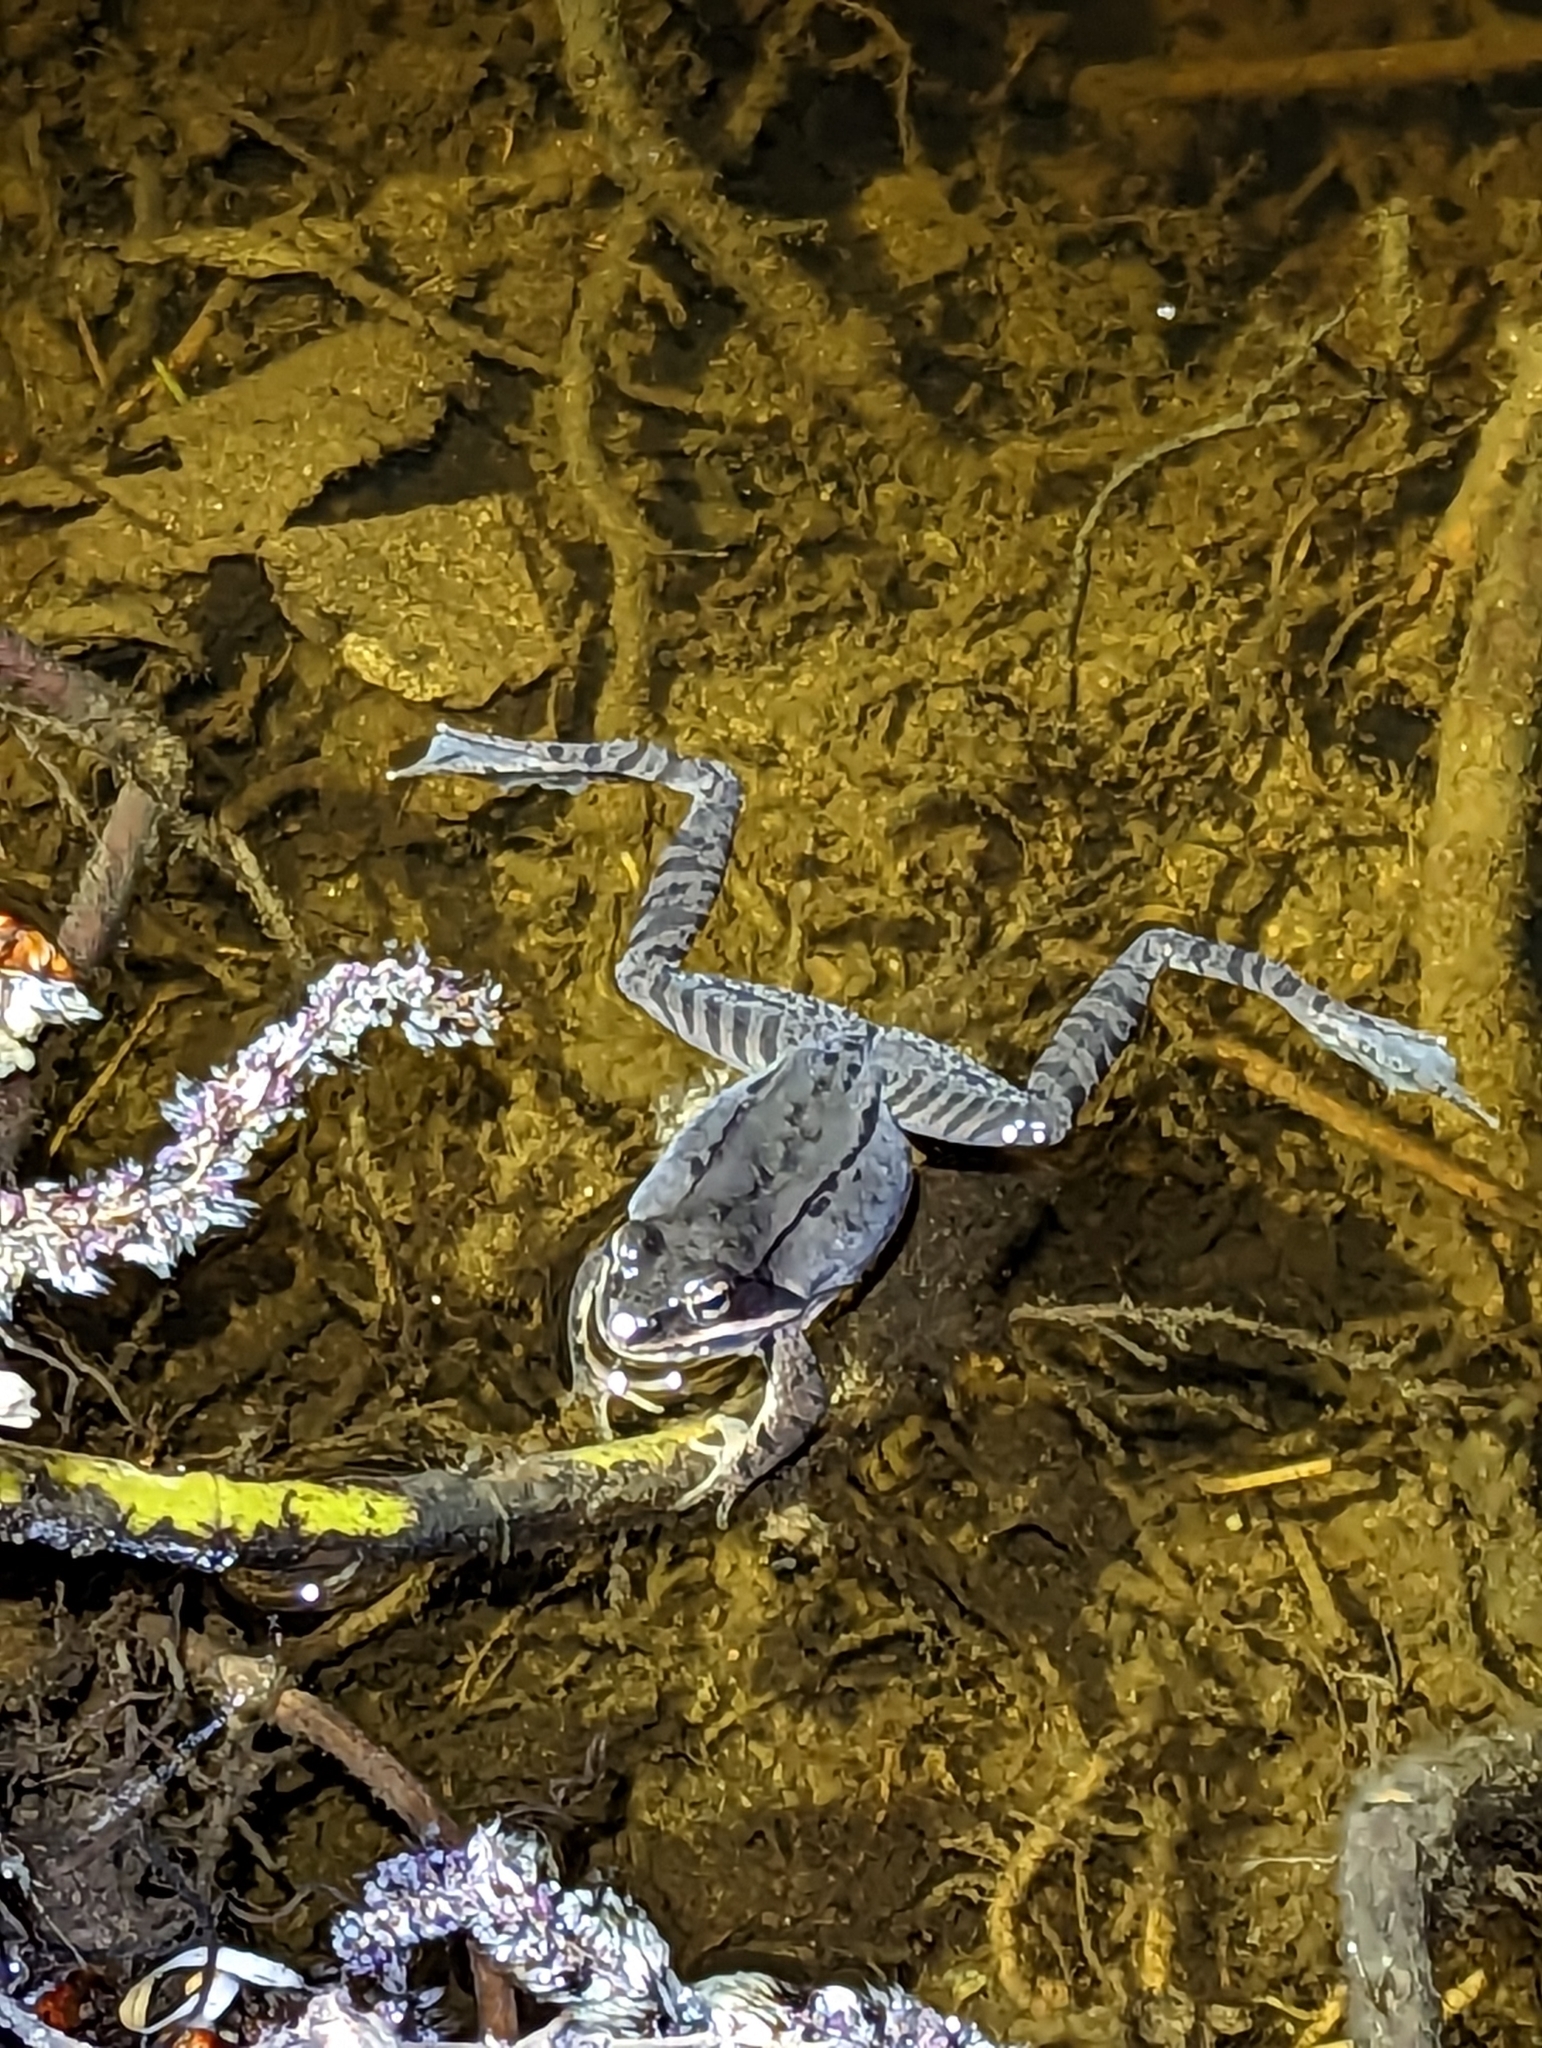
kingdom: Animalia
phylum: Chordata
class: Amphibia
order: Anura
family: Ranidae
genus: Lithobates
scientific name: Lithobates sylvaticus
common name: Wood frog
